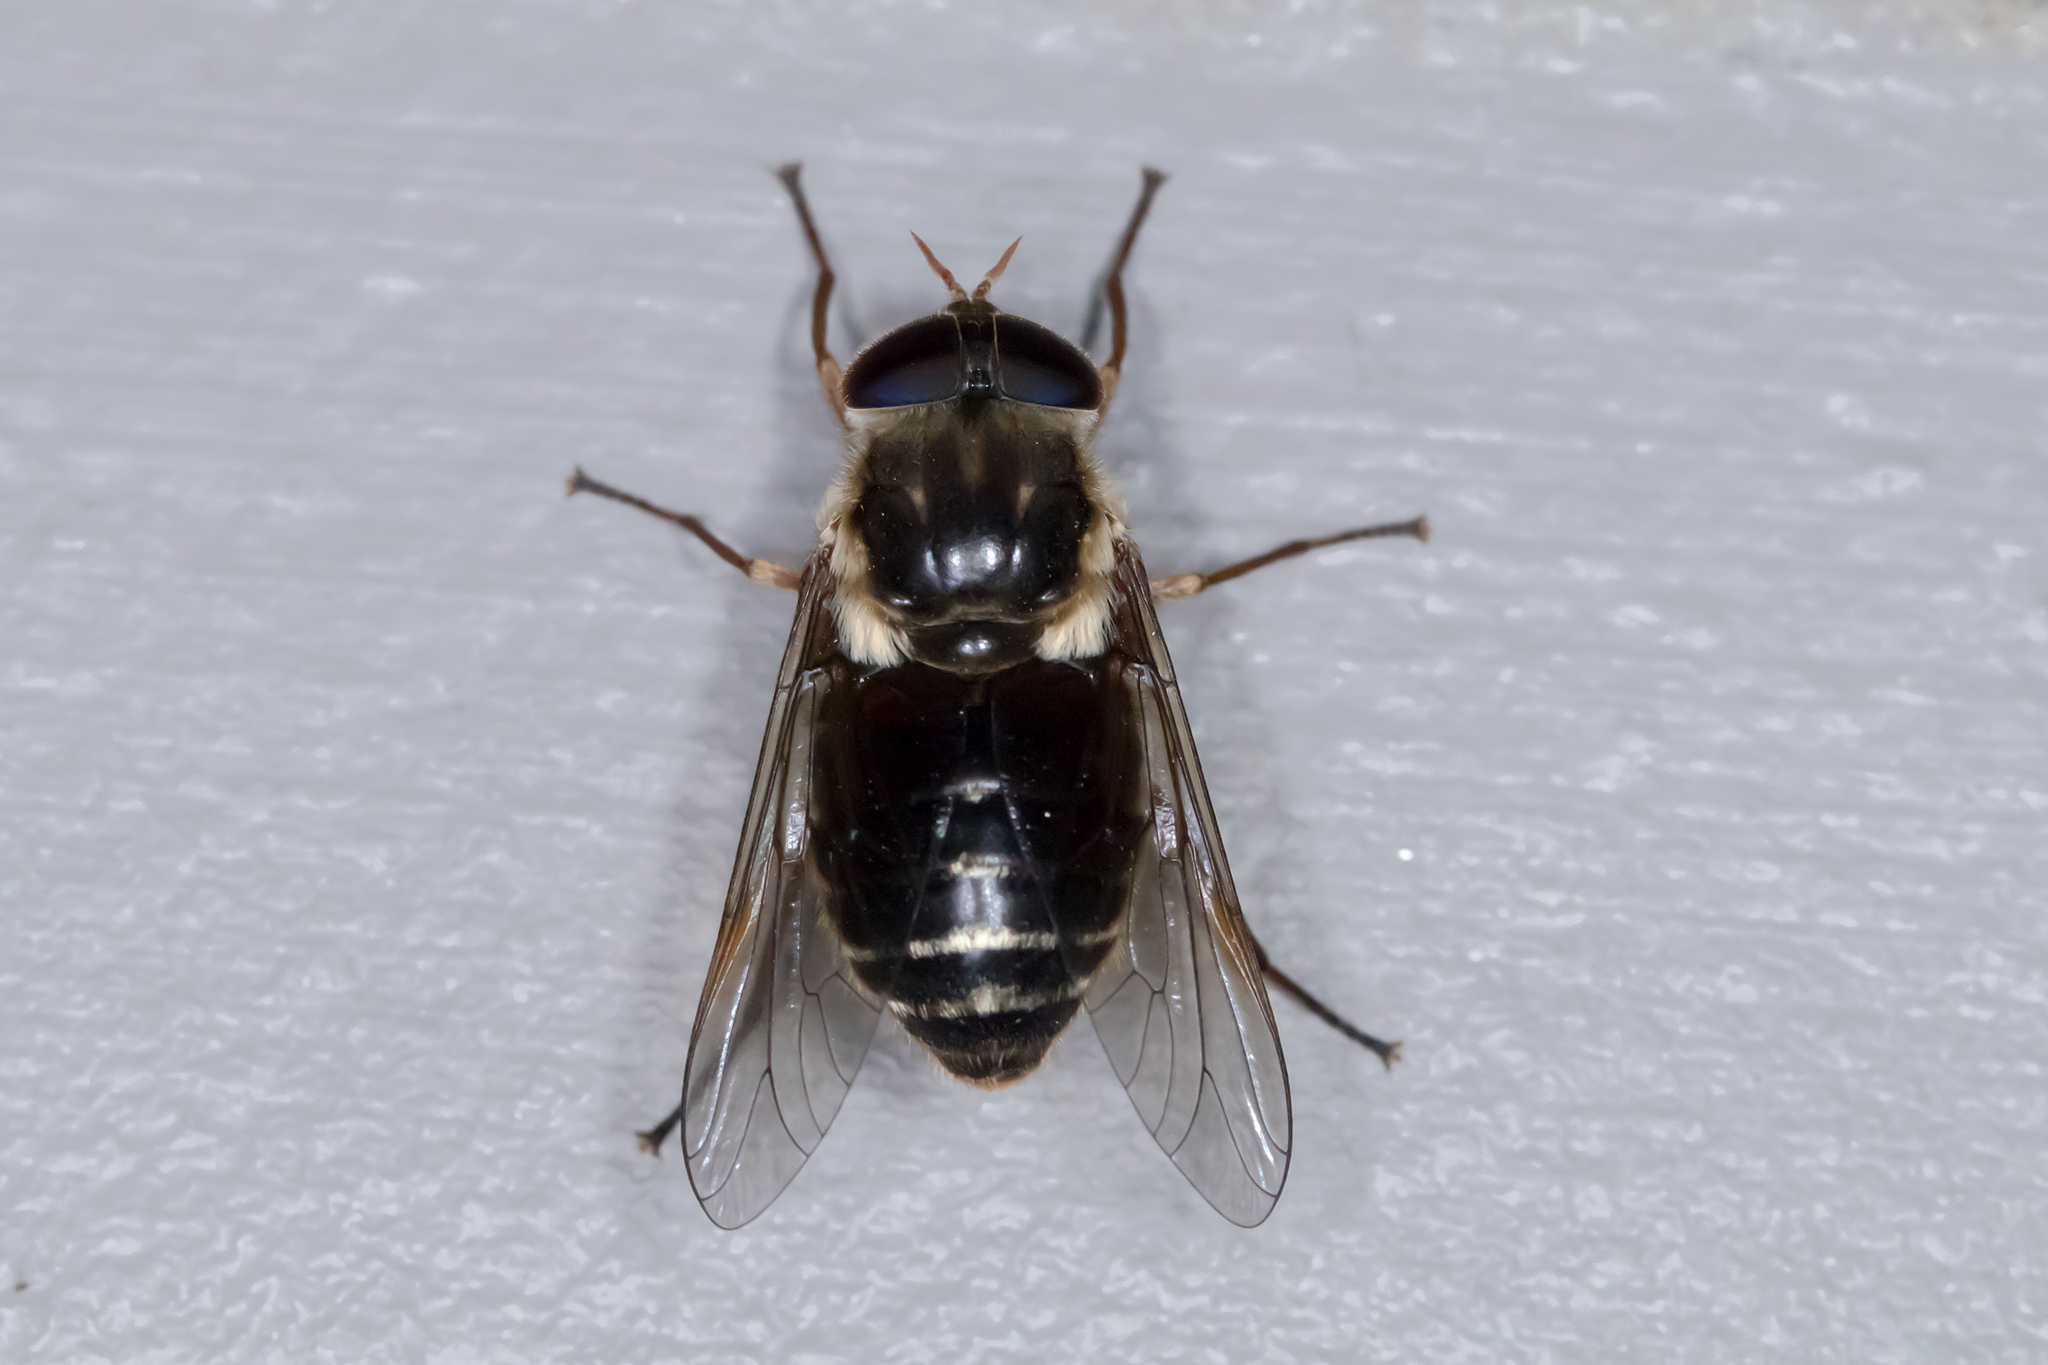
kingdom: Animalia
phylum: Arthropoda
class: Insecta
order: Diptera
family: Tabanidae
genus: Triclista
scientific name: Triclista media
